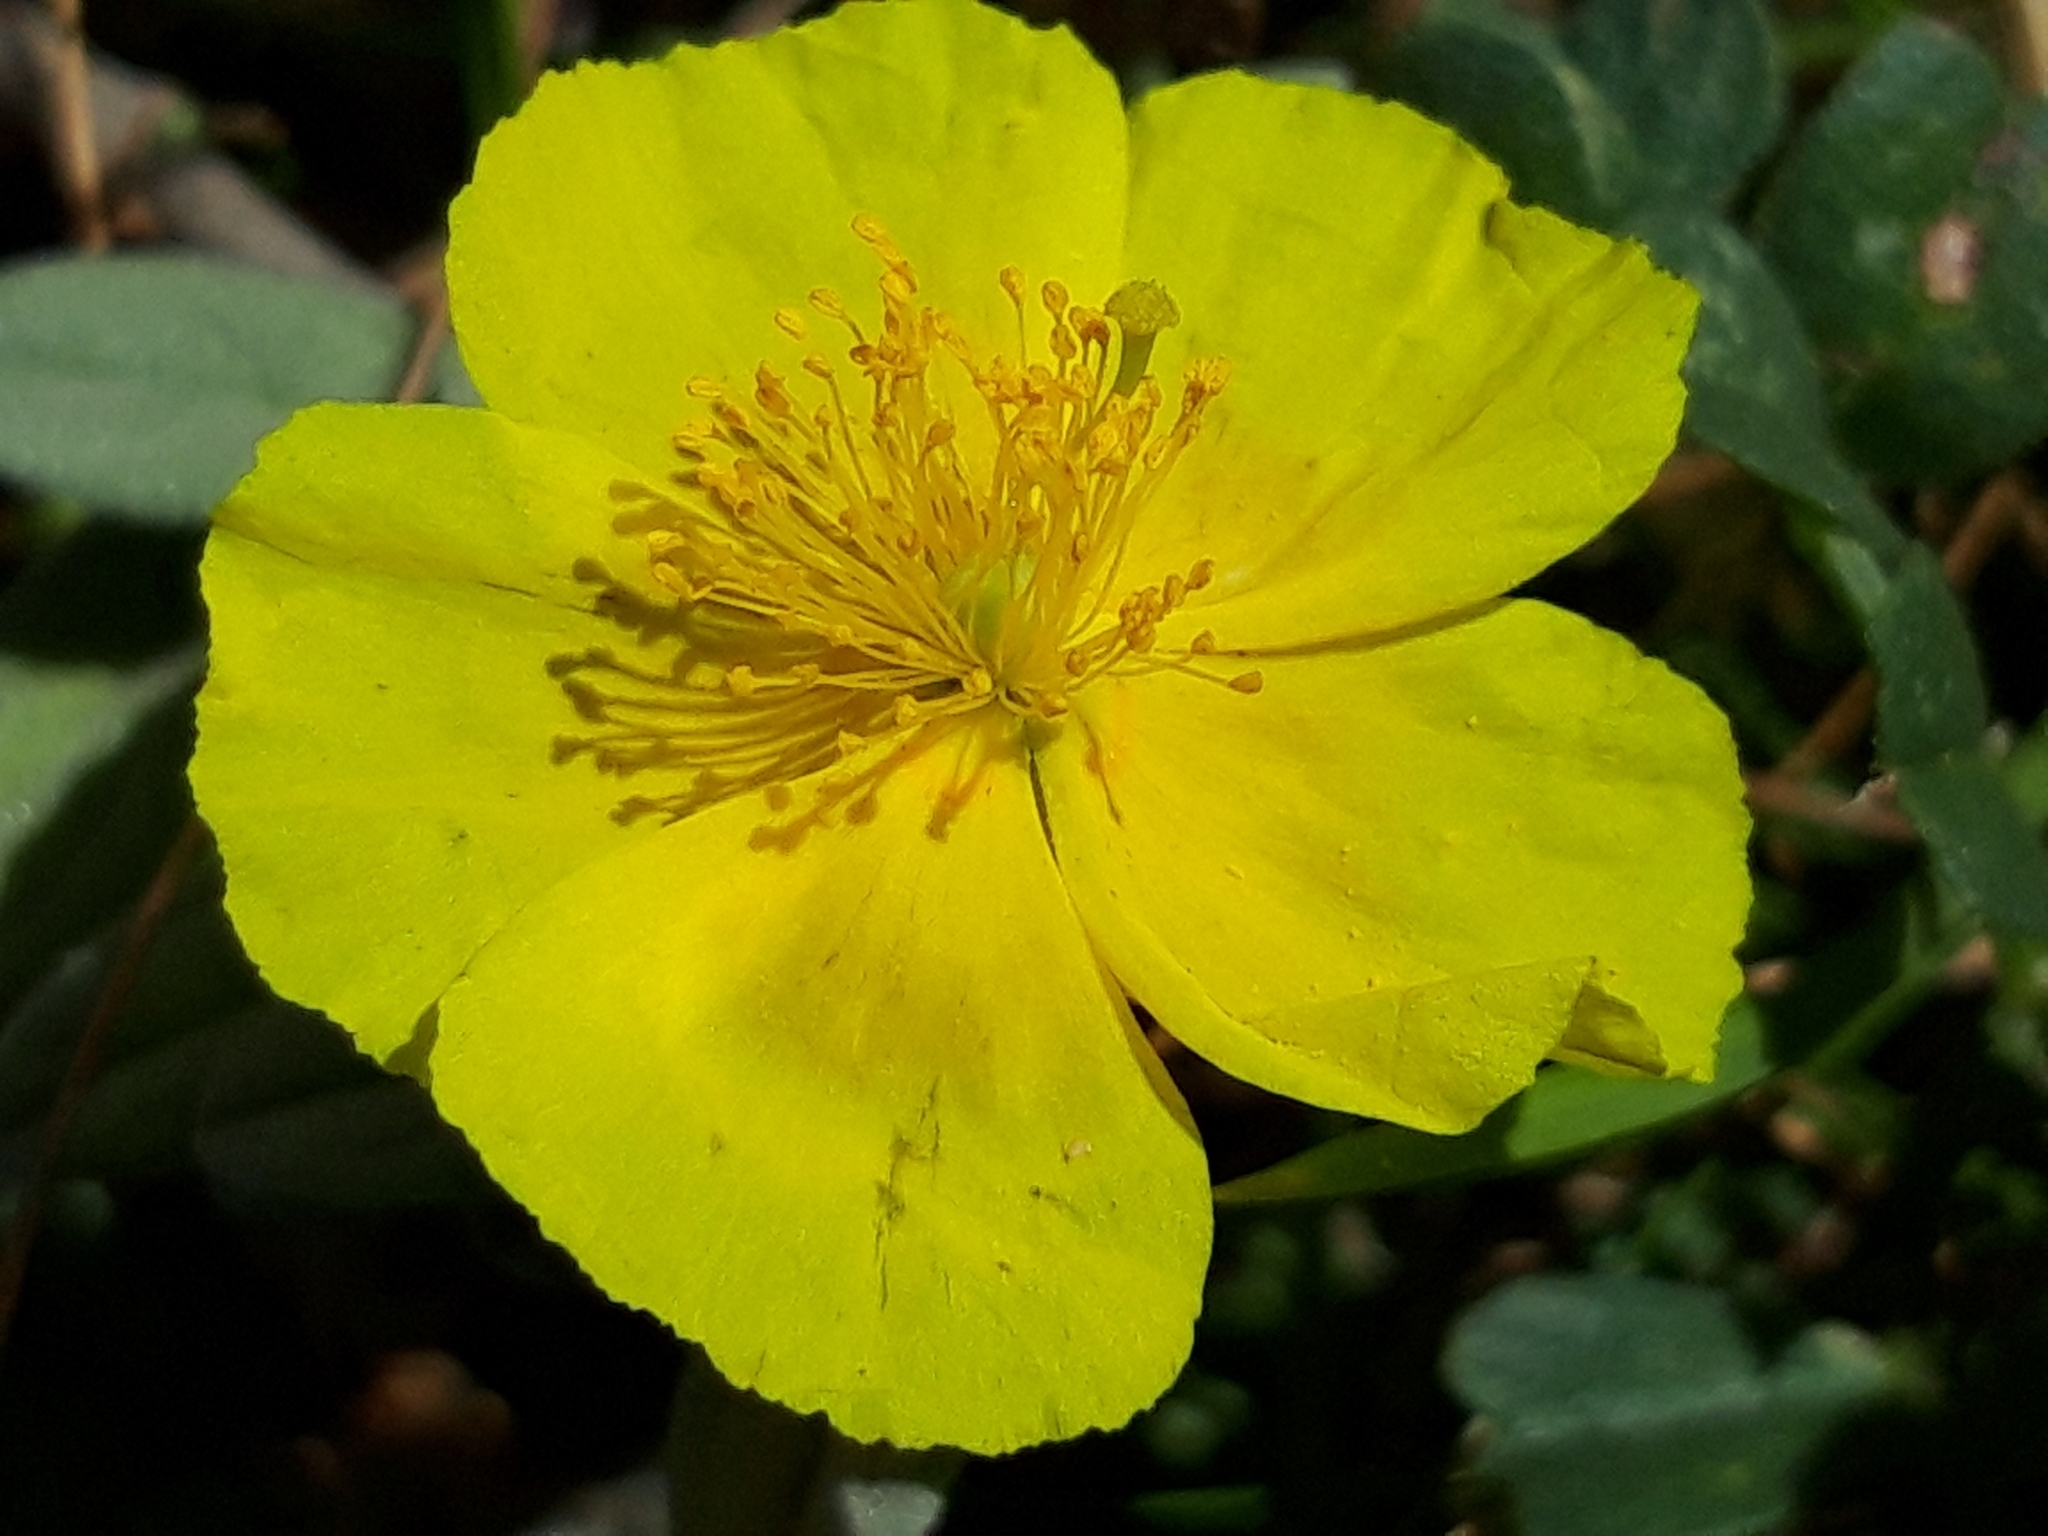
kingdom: Plantae
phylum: Tracheophyta
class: Magnoliopsida
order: Malvales
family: Cistaceae
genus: Helianthemum
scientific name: Helianthemum canum
